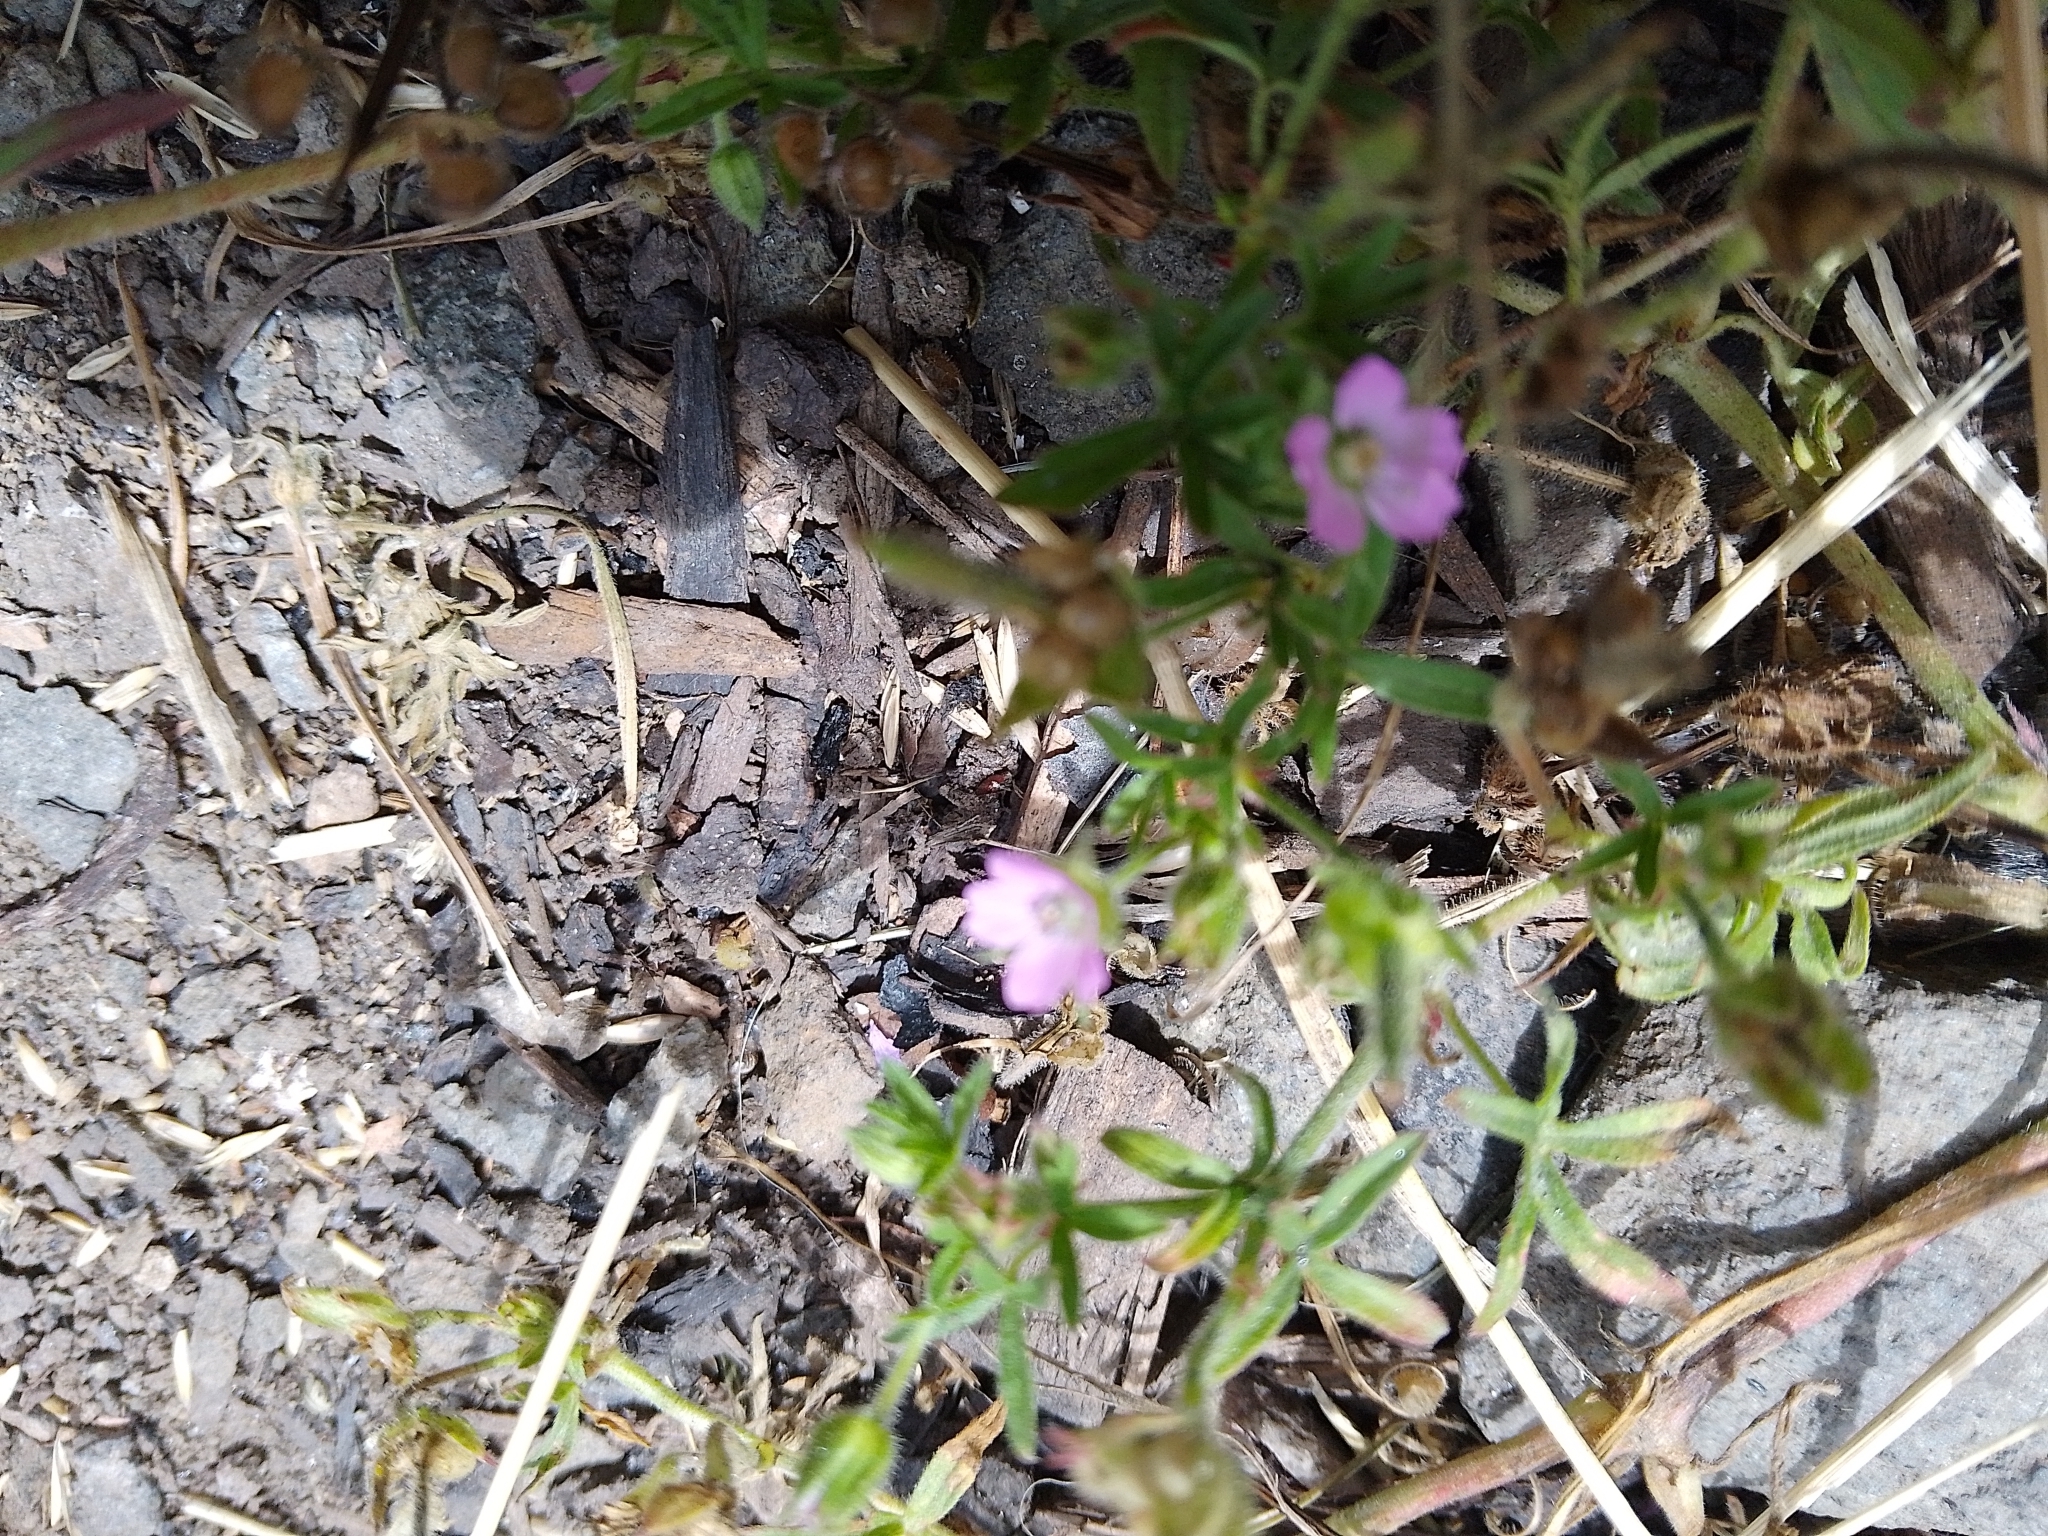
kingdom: Plantae
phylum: Tracheophyta
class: Magnoliopsida
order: Geraniales
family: Geraniaceae
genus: Geranium
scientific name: Geranium dissectum
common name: Cut-leaved crane's-bill
